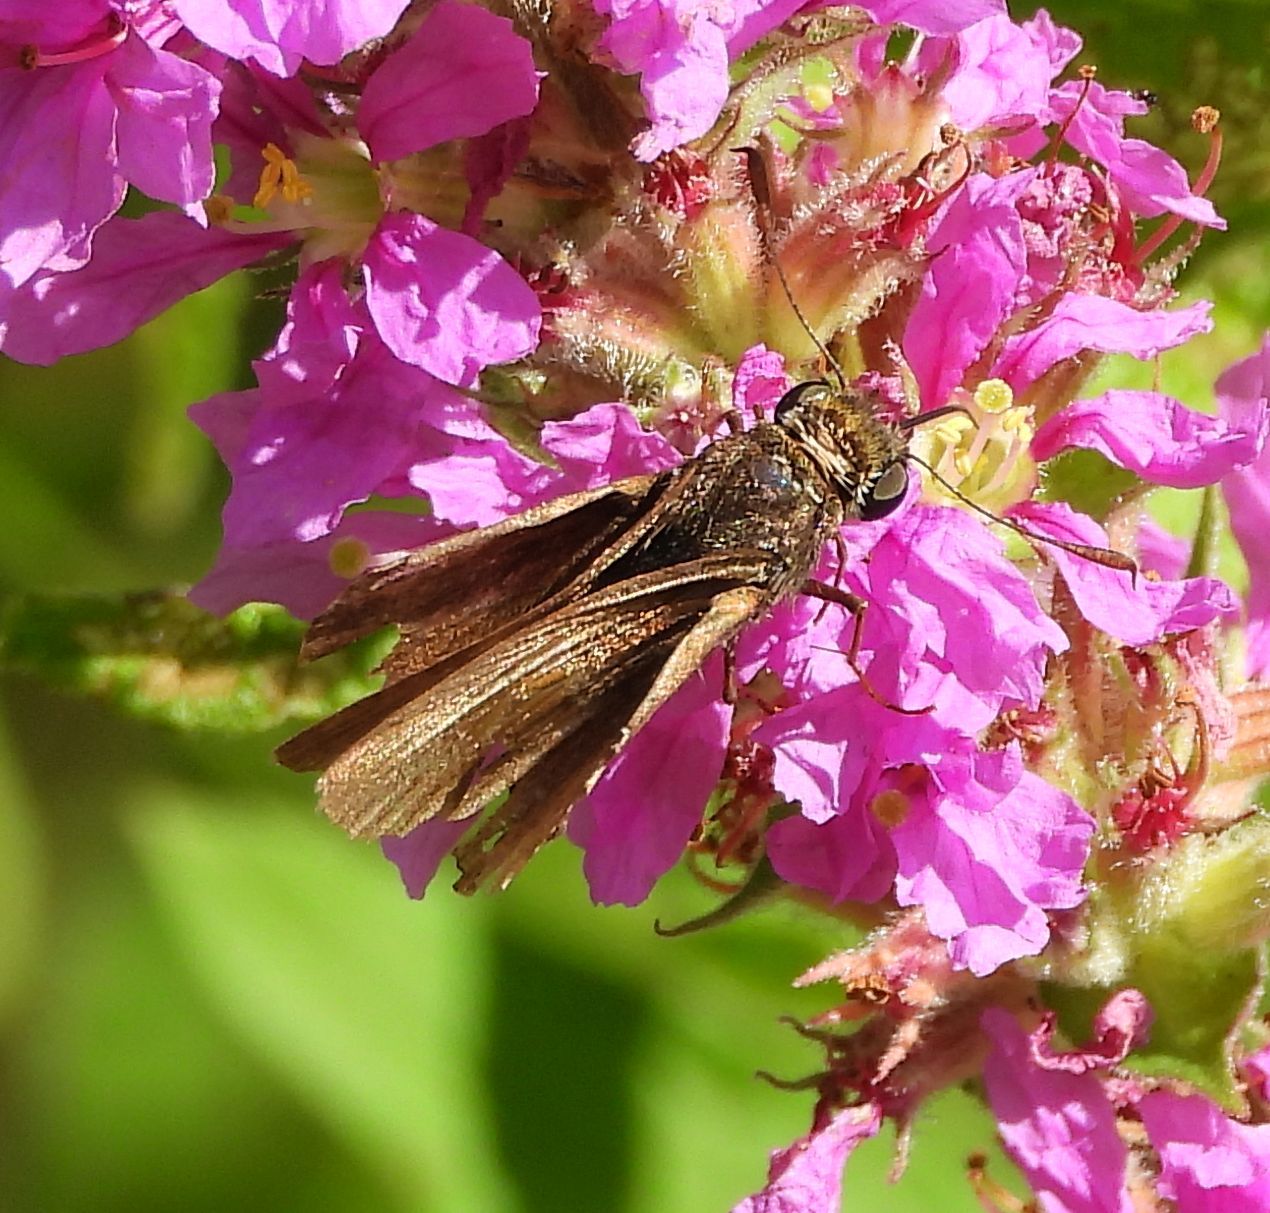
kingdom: Animalia
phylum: Arthropoda
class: Insecta
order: Lepidoptera
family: Hesperiidae
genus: Euphyes
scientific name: Euphyes vestris
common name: Dun skipper
